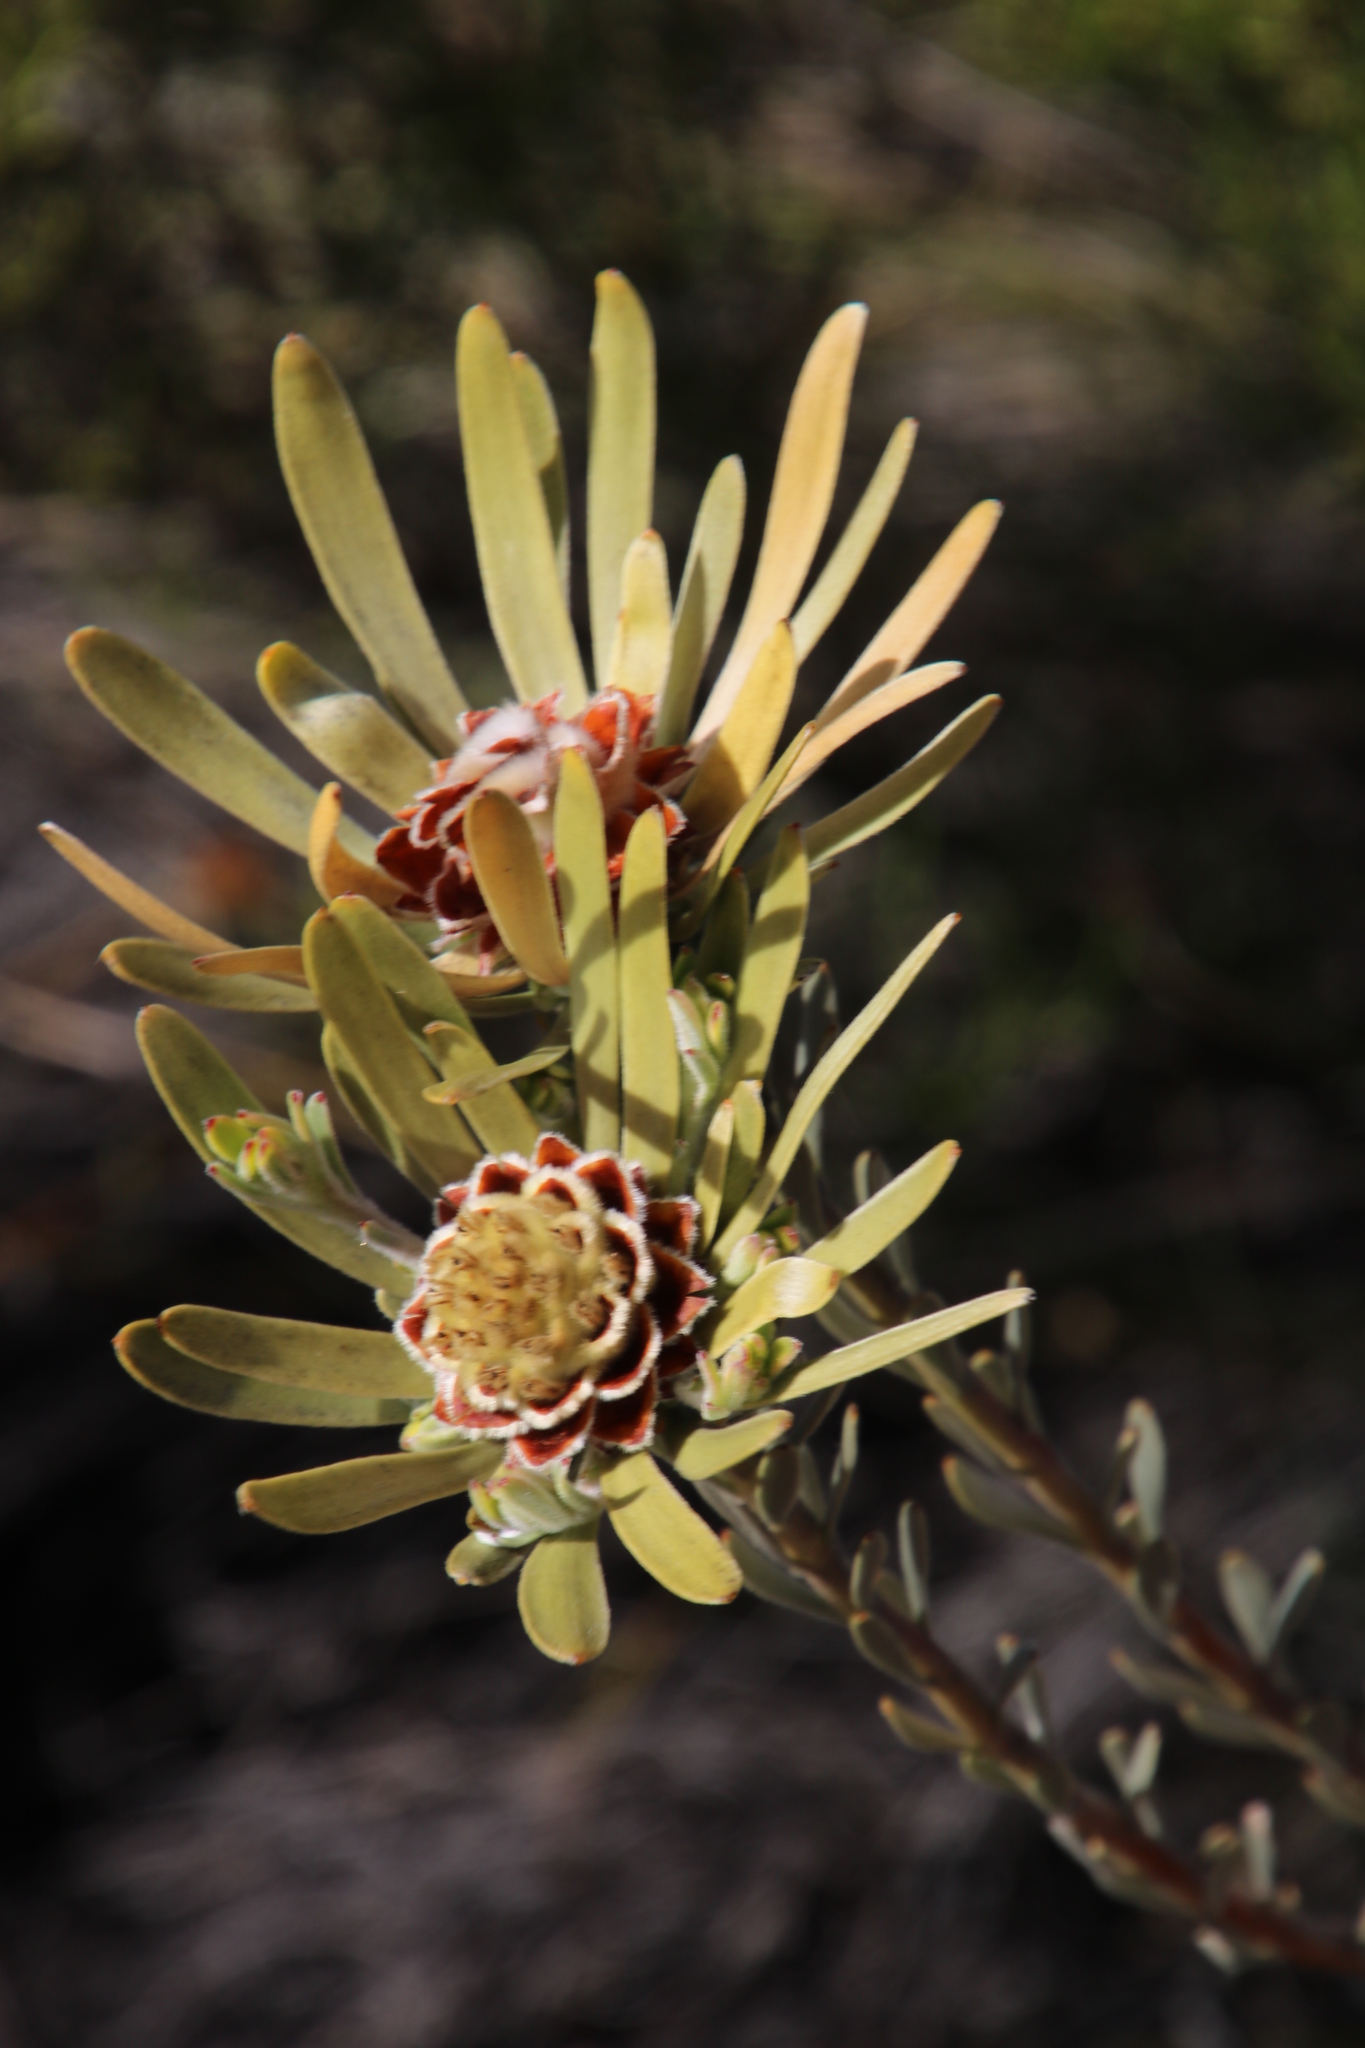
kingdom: Plantae
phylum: Tracheophyta
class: Magnoliopsida
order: Proteales
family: Proteaceae
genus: Leucadendron
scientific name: Leucadendron nitidum
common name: Bokkeveld conebush
